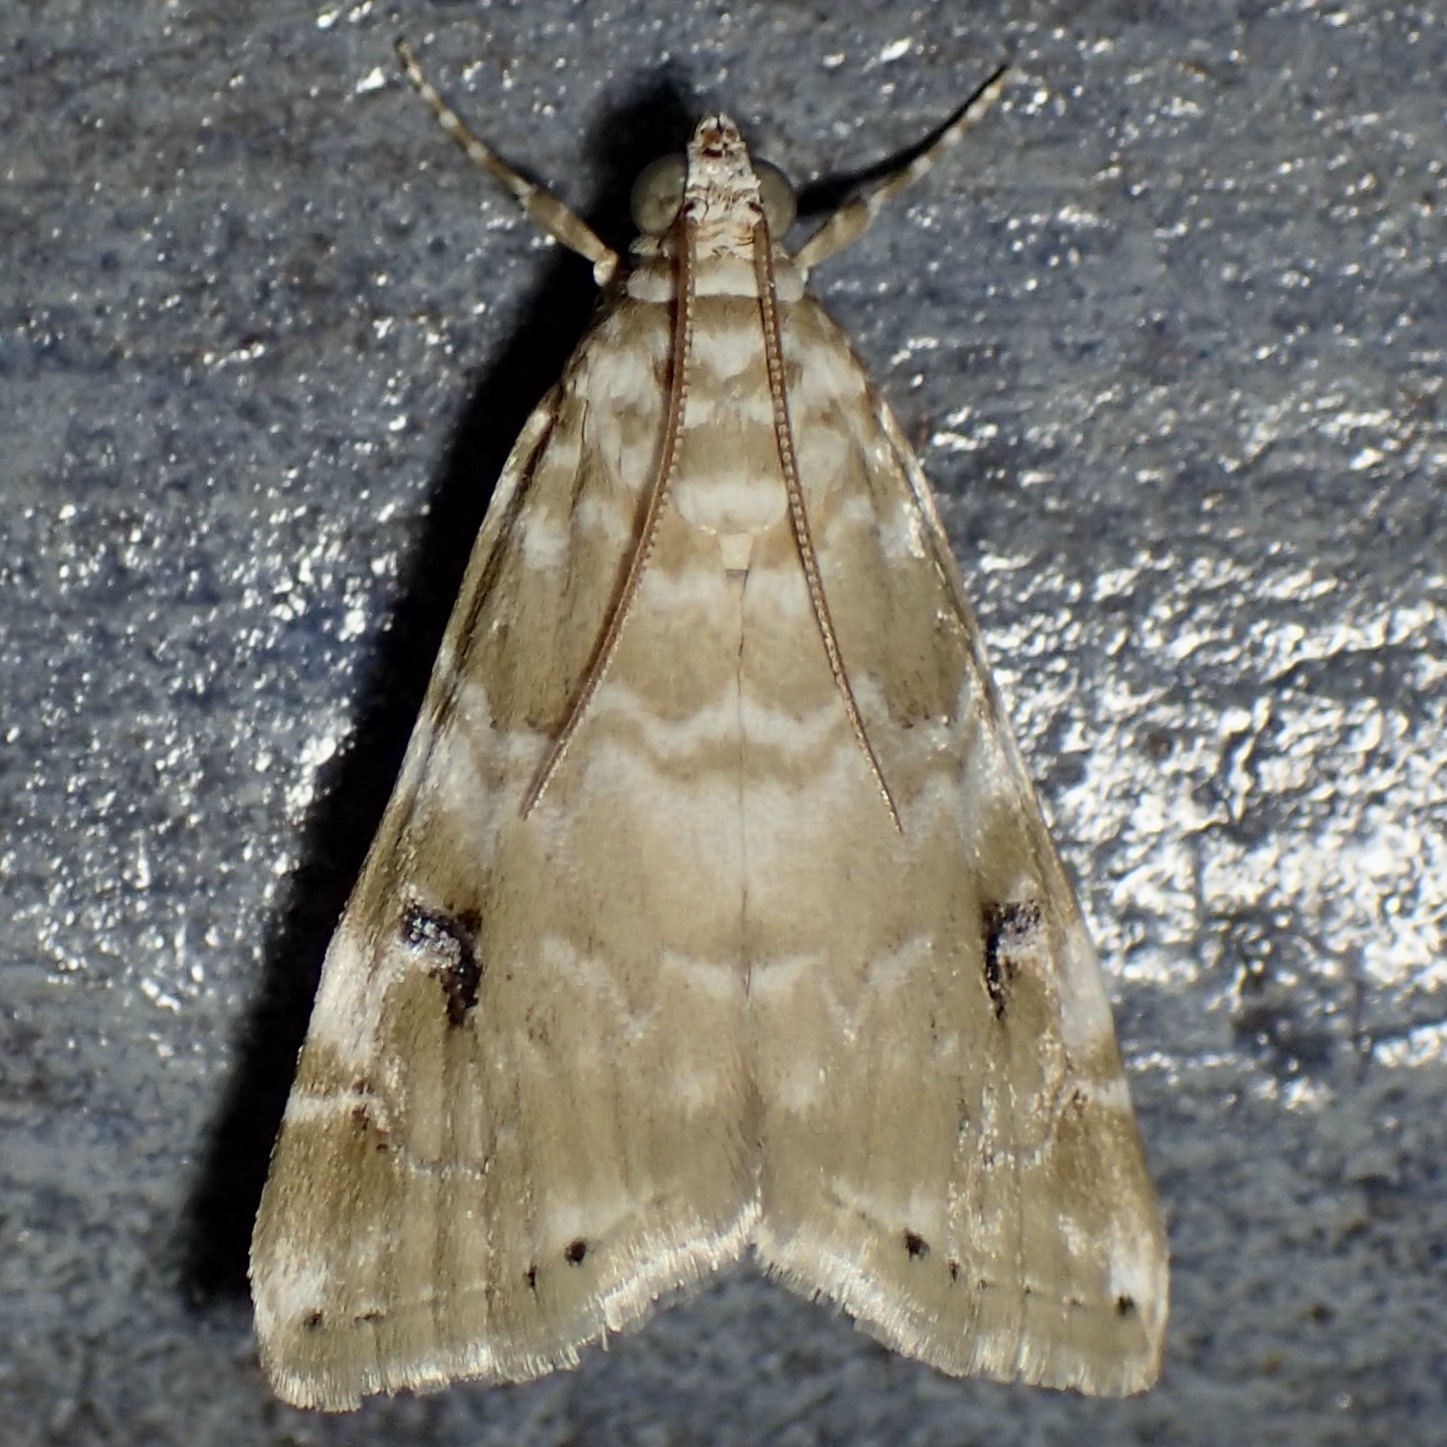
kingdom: Animalia
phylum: Arthropoda
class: Insecta
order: Lepidoptera
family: Crambidae
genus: Hellula
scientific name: Hellula phidilealis
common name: Crambid moth
